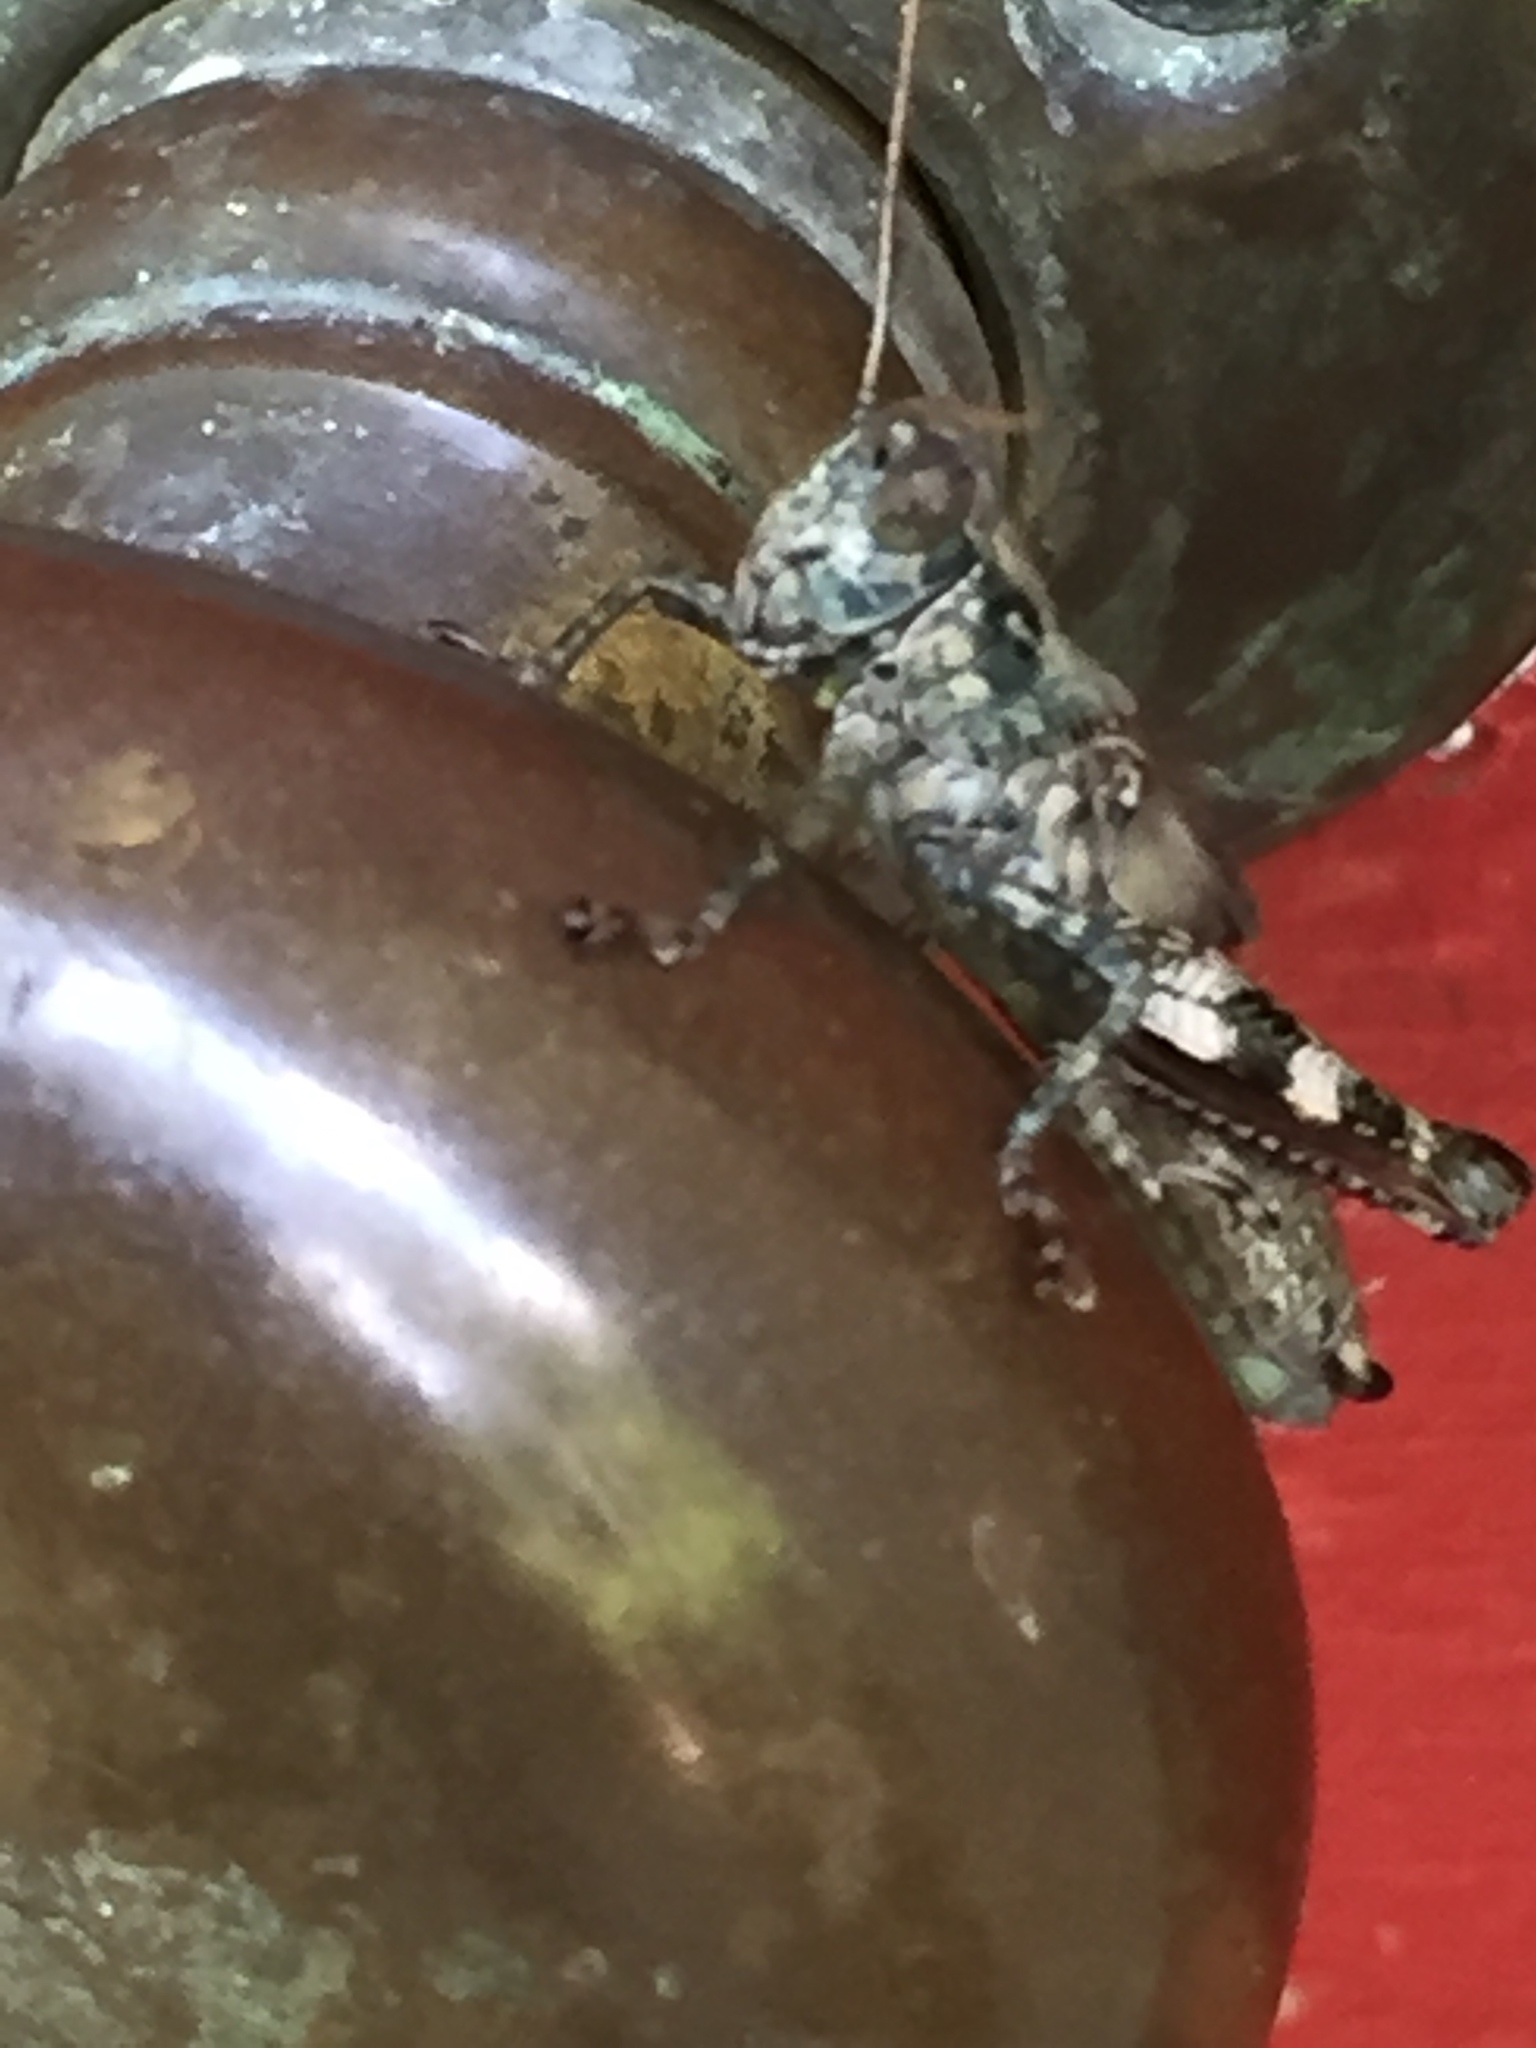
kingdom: Animalia
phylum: Arthropoda
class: Insecta
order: Orthoptera
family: Acrididae
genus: Melanoplus
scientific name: Melanoplus punctulatus
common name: Pine-tree spur-throat grasshopper
